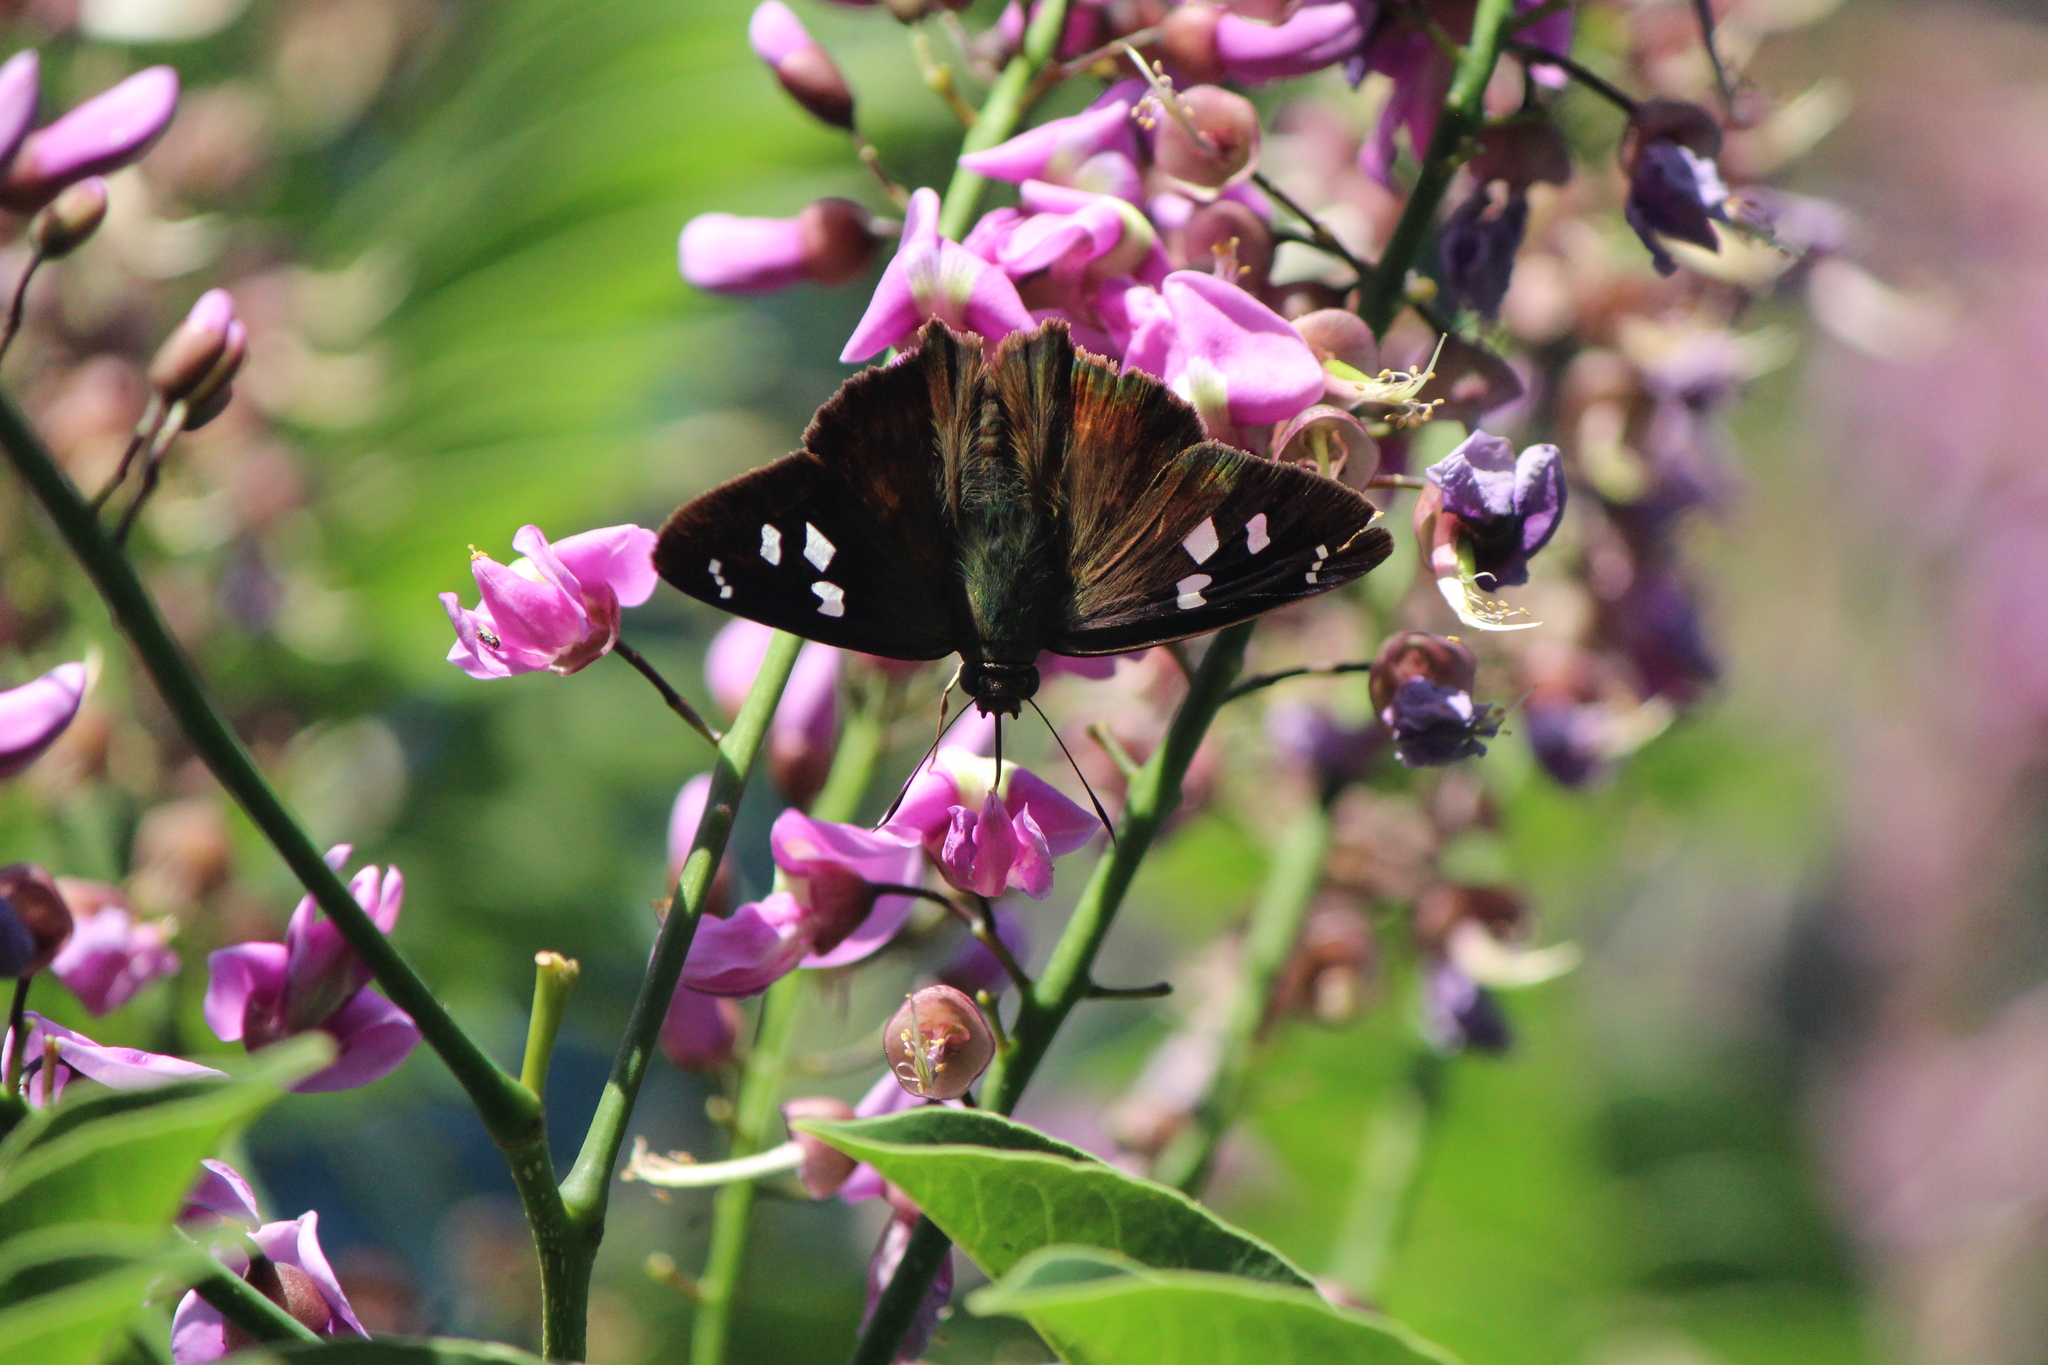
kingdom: Animalia
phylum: Arthropoda
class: Insecta
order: Lepidoptera
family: Hesperiidae
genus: Polygonus
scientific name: Polygonus leo
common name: Hammoch skipper
